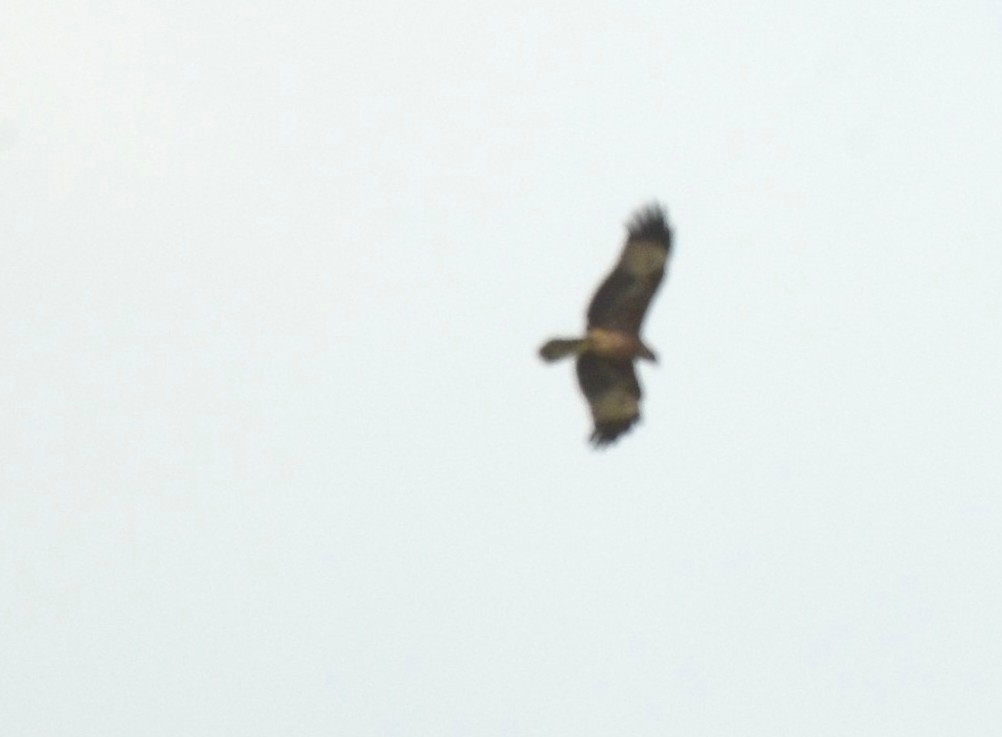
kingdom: Animalia
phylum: Chordata
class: Aves
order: Accipitriformes
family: Accipitridae
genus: Haliastur
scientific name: Haliastur indus
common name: Brahminy kite
